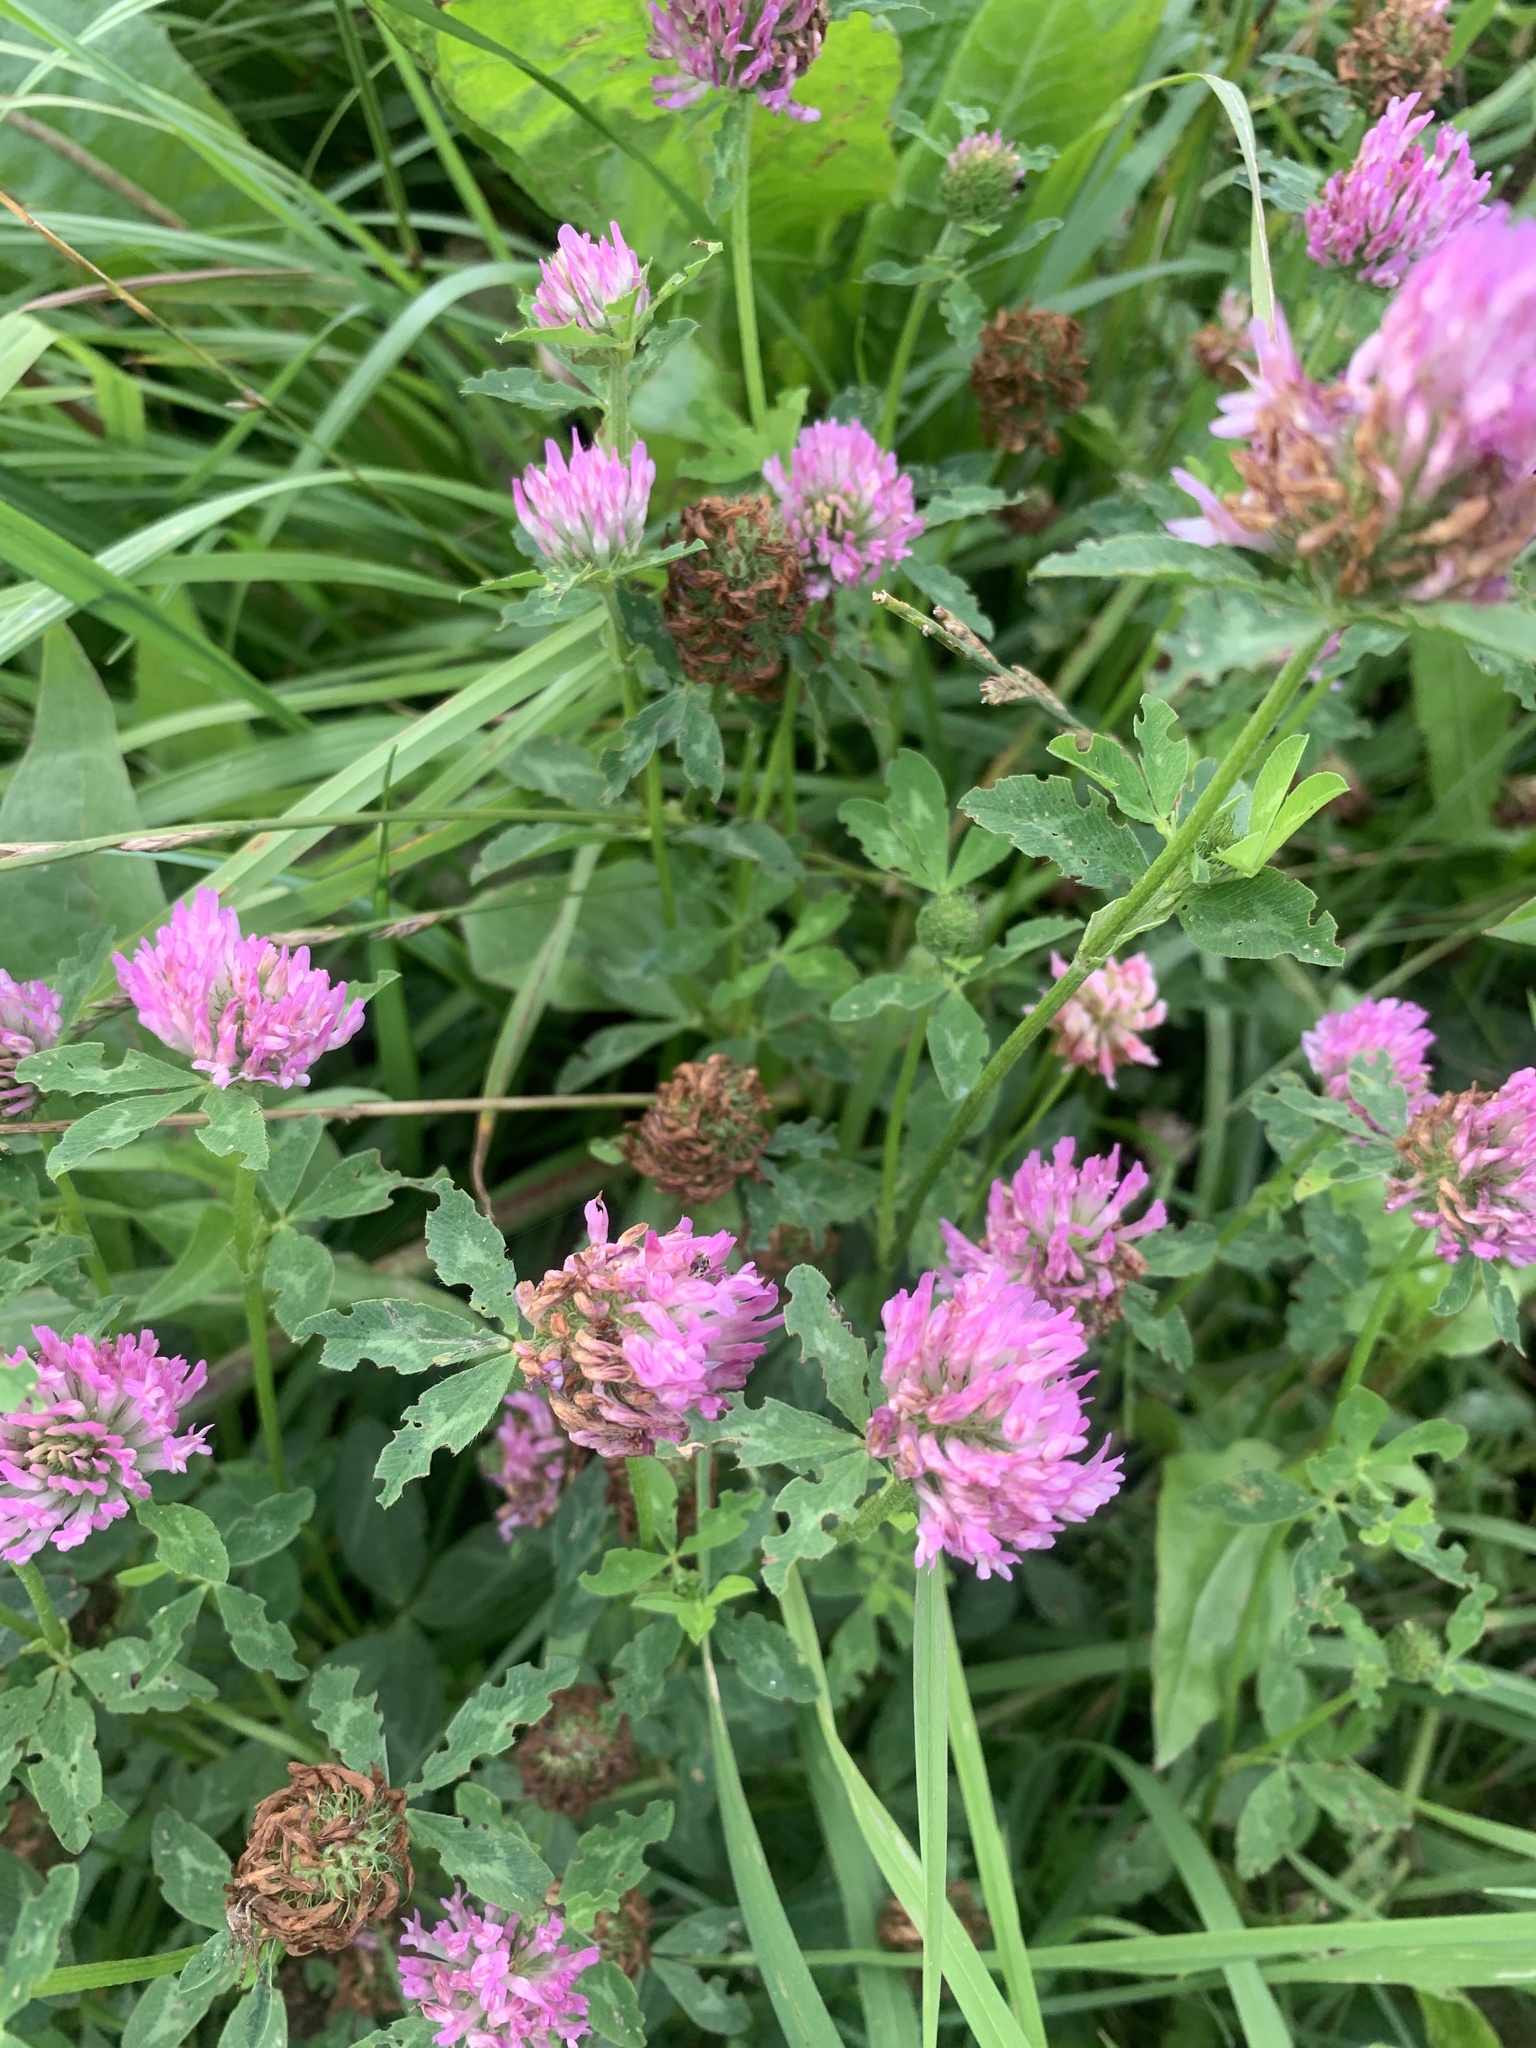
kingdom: Plantae
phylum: Tracheophyta
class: Magnoliopsida
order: Fabales
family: Fabaceae
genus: Trifolium
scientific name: Trifolium pratense
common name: Red clover
